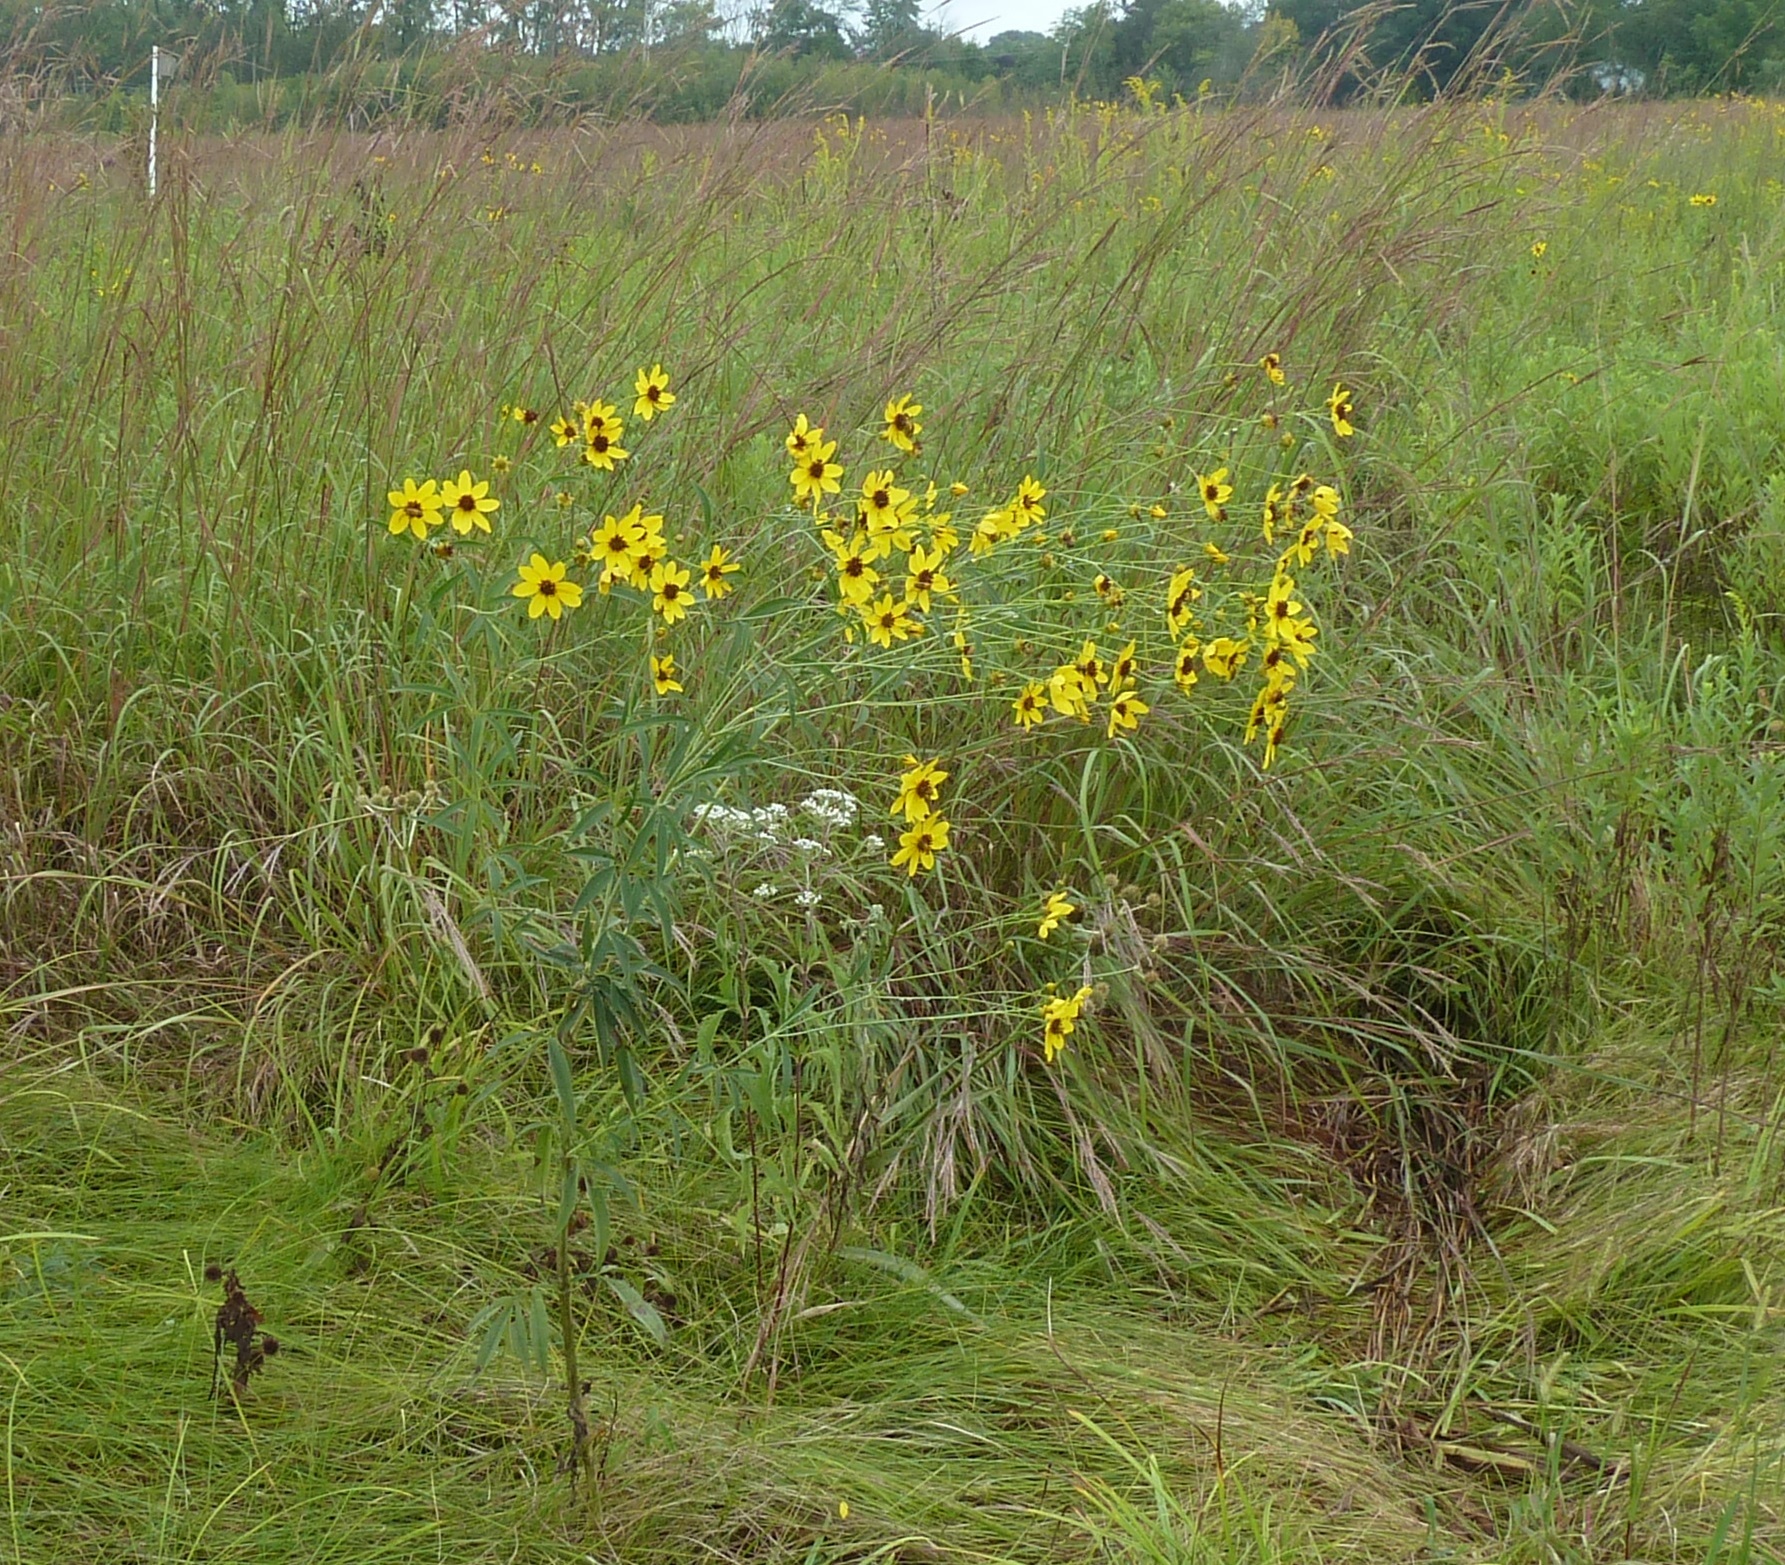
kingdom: Plantae
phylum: Tracheophyta
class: Magnoliopsida
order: Asterales
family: Asteraceae
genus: Coreopsis
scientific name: Coreopsis tripteris
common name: Tall coreopsis
